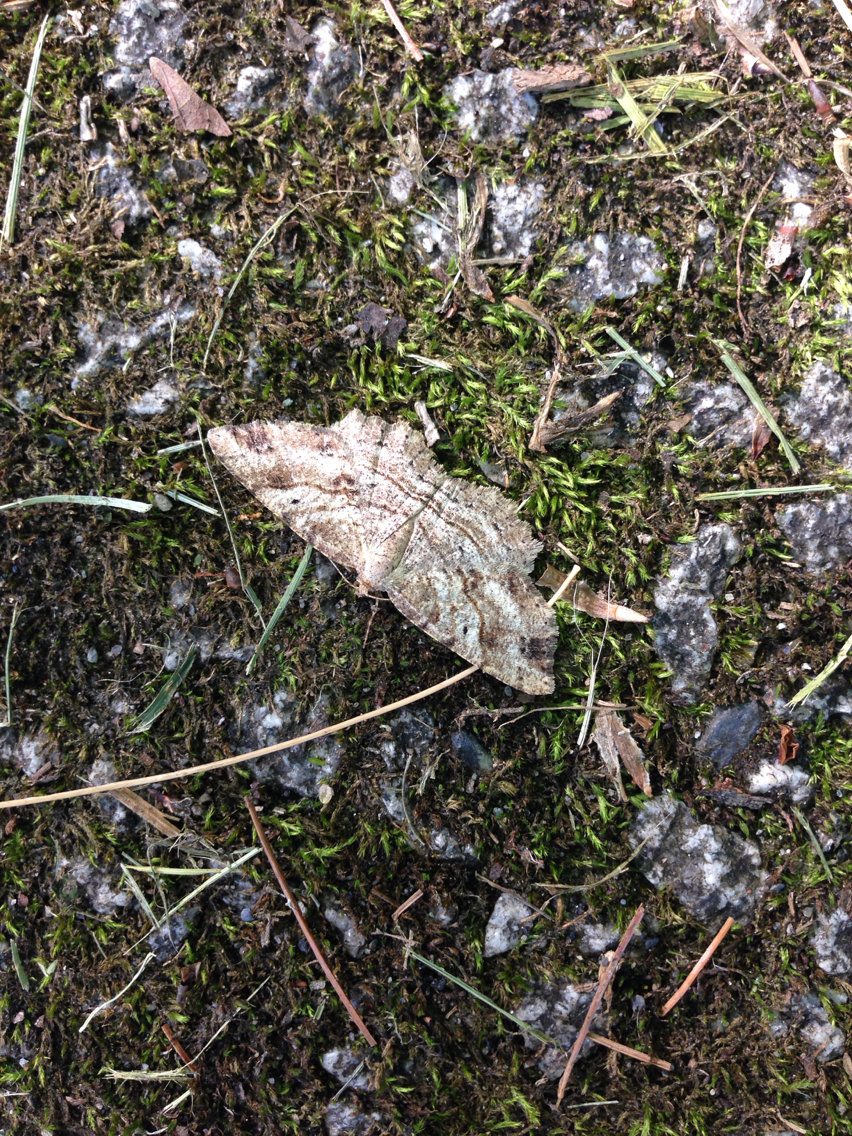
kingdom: Animalia
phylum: Arthropoda
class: Insecta
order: Lepidoptera
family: Geometridae
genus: Melanolophia
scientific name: Melanolophia signataria
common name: Signate melanolophia
